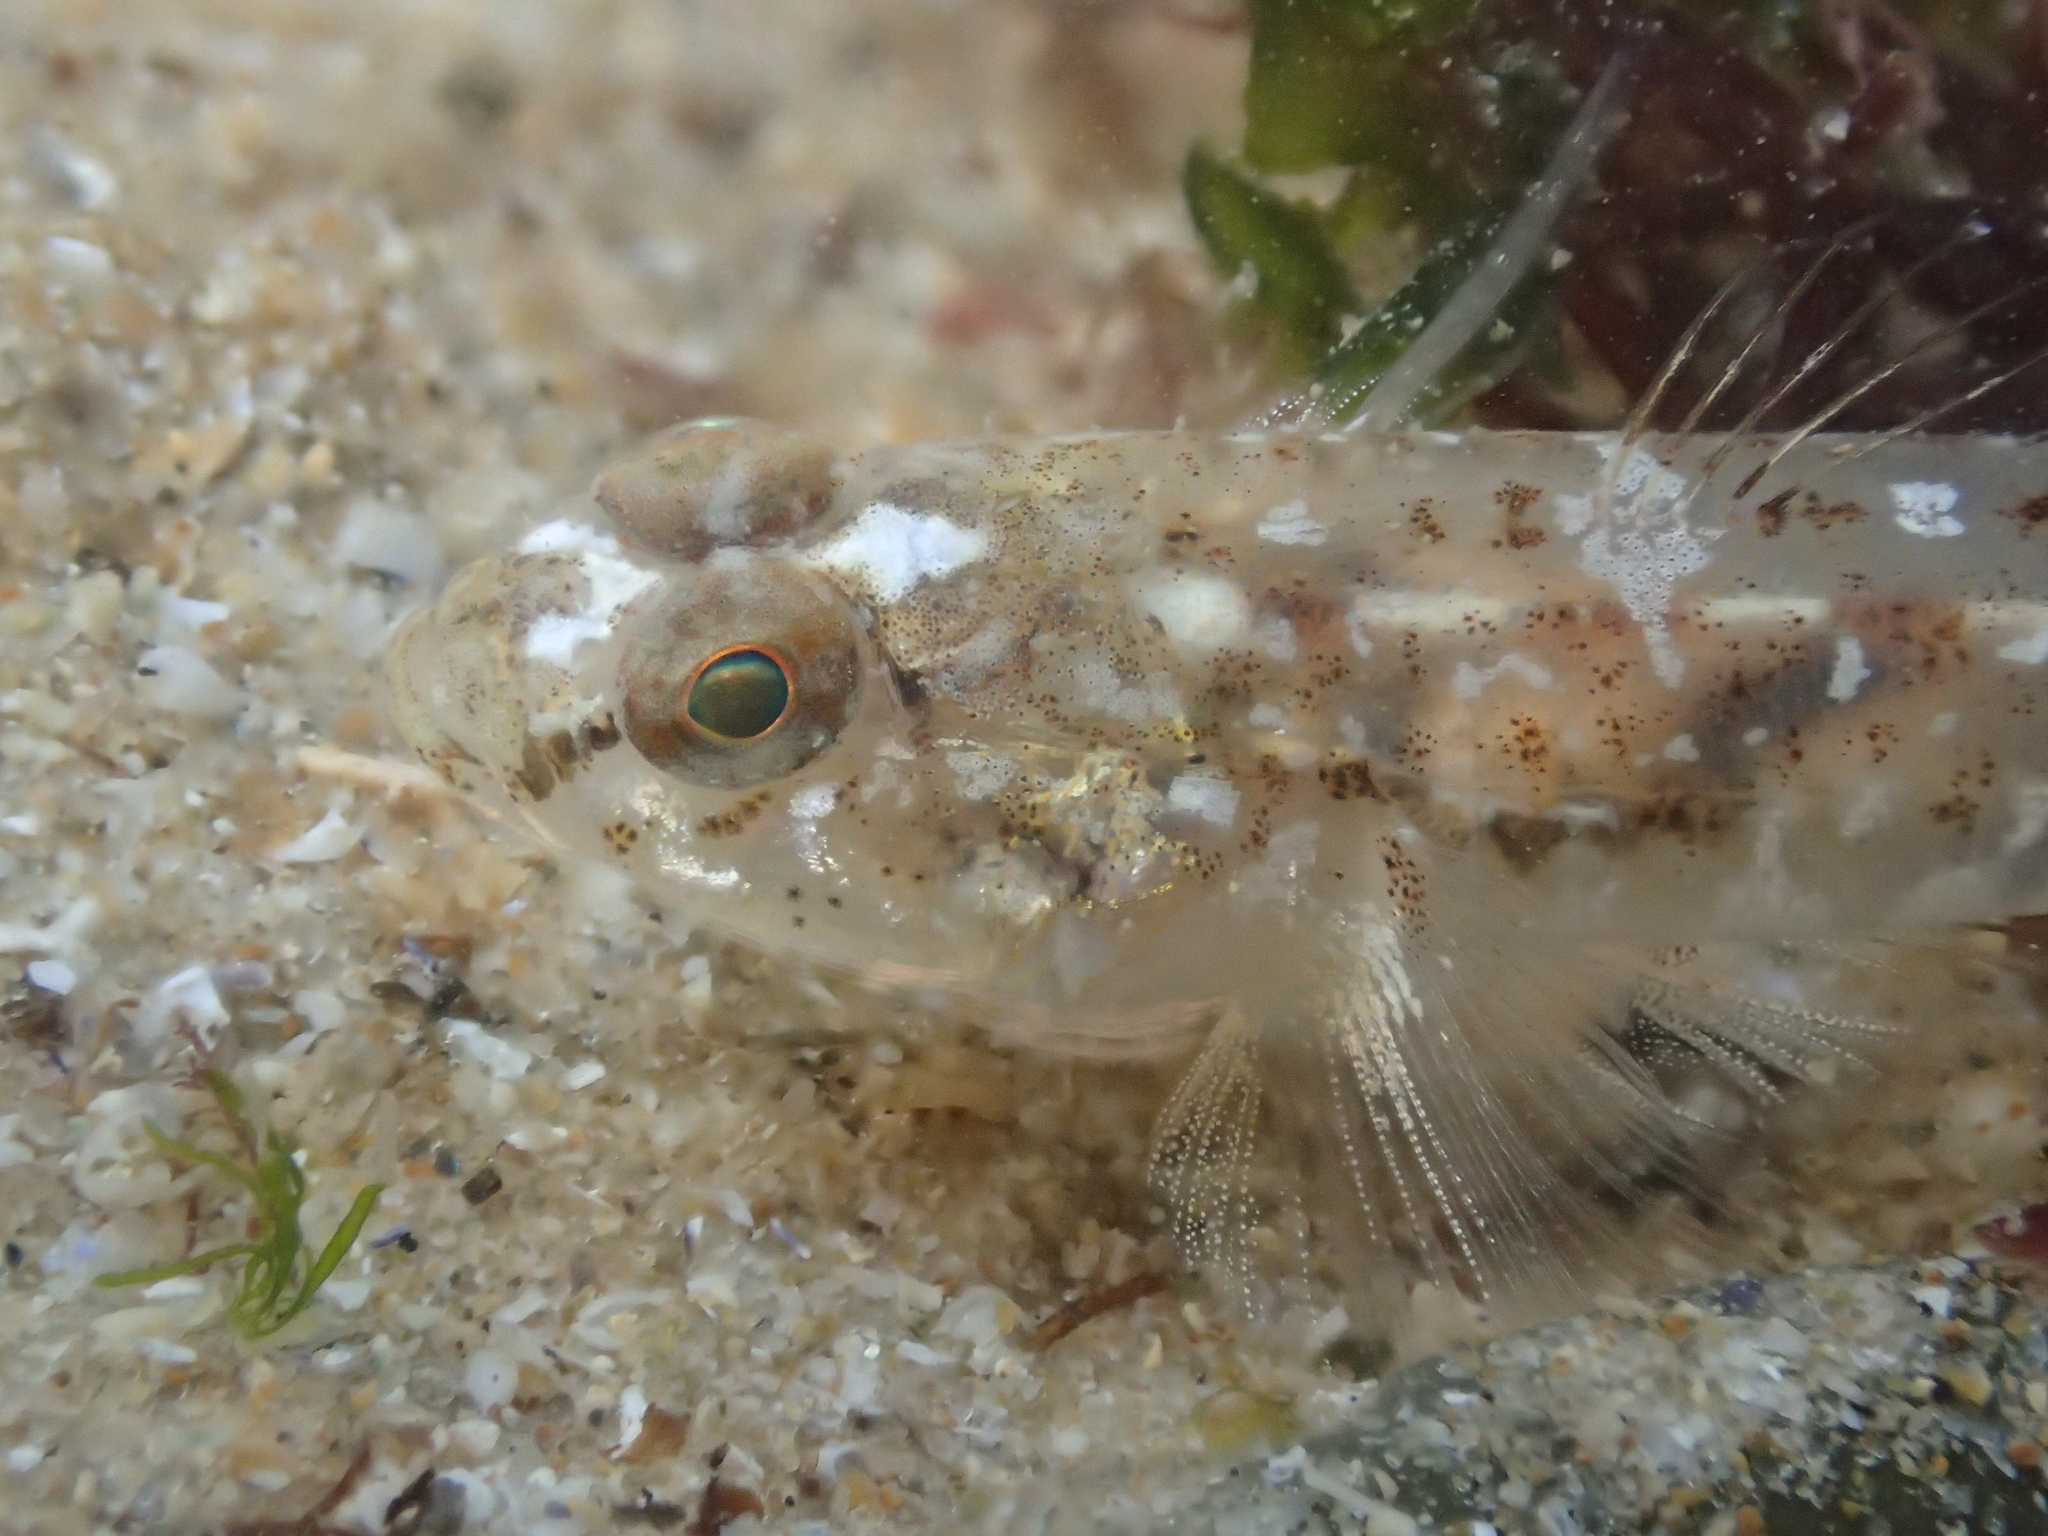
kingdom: Animalia
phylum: Chordata
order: Perciformes
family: Gobiidae
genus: Pomatoschistus
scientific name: Pomatoschistus microps
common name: Common goby
